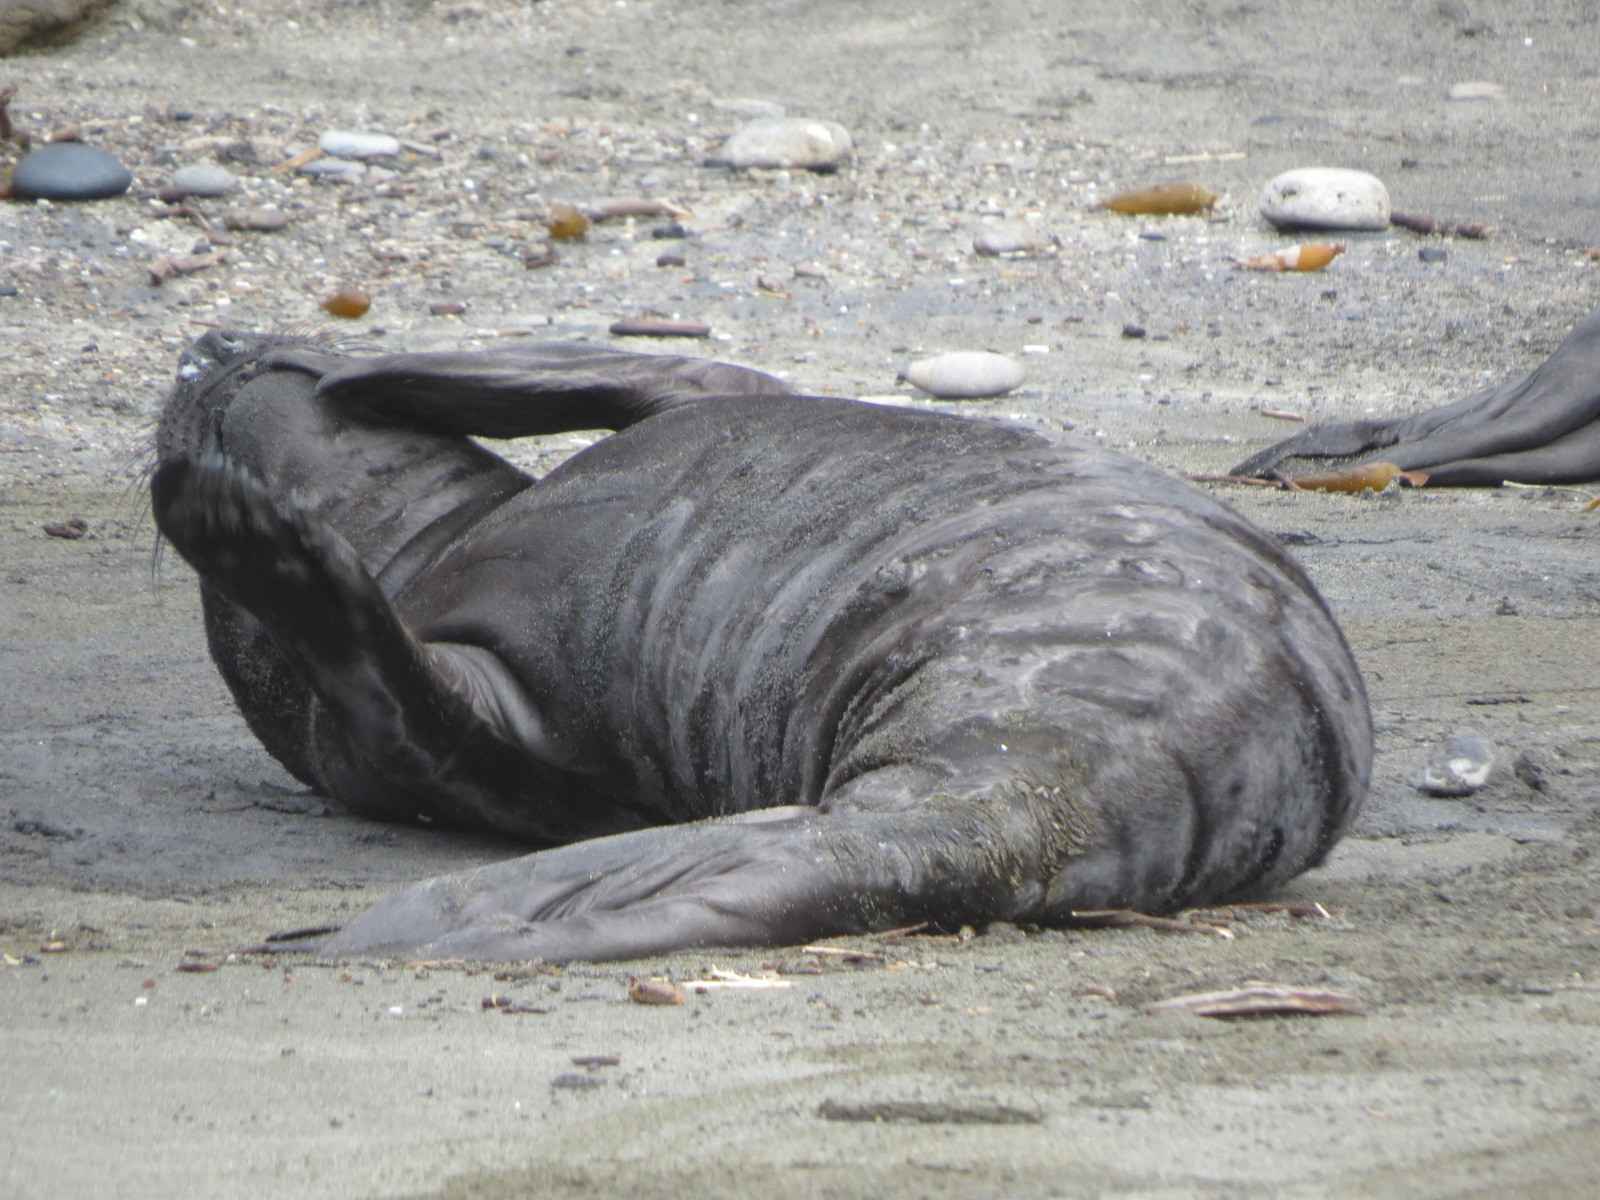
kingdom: Animalia
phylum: Chordata
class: Mammalia
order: Carnivora
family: Phocidae
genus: Mirounga
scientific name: Mirounga angustirostris
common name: Northern elephant seal
